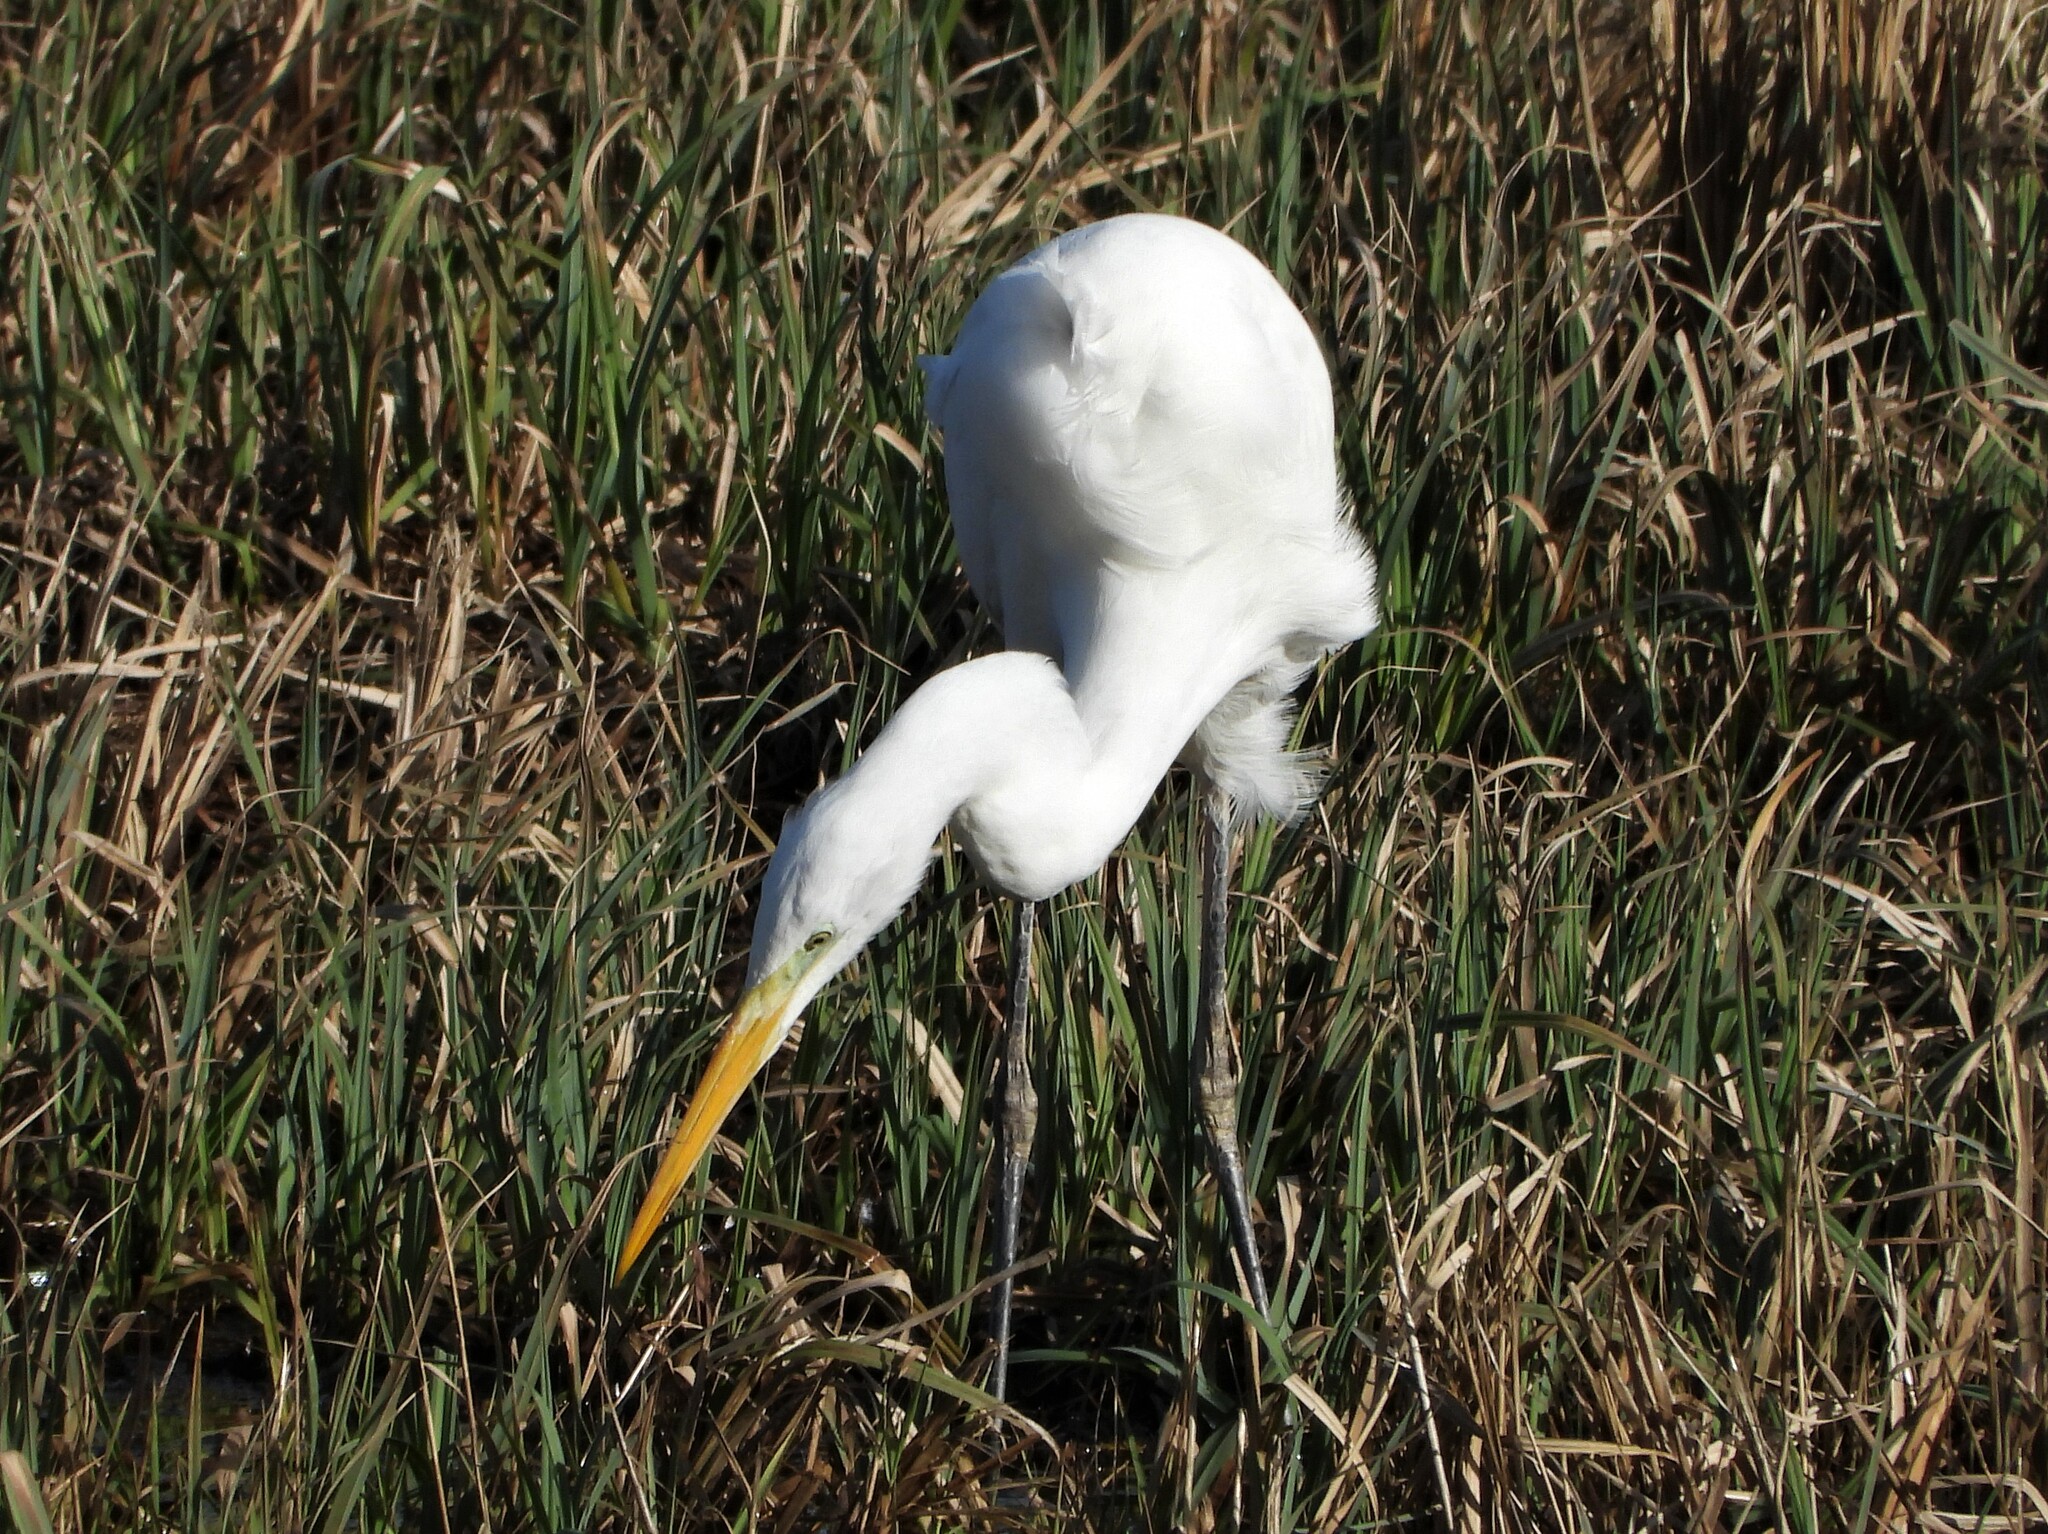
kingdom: Animalia
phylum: Chordata
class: Aves
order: Pelecaniformes
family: Ardeidae
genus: Ardea
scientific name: Ardea alba
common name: Great egret
